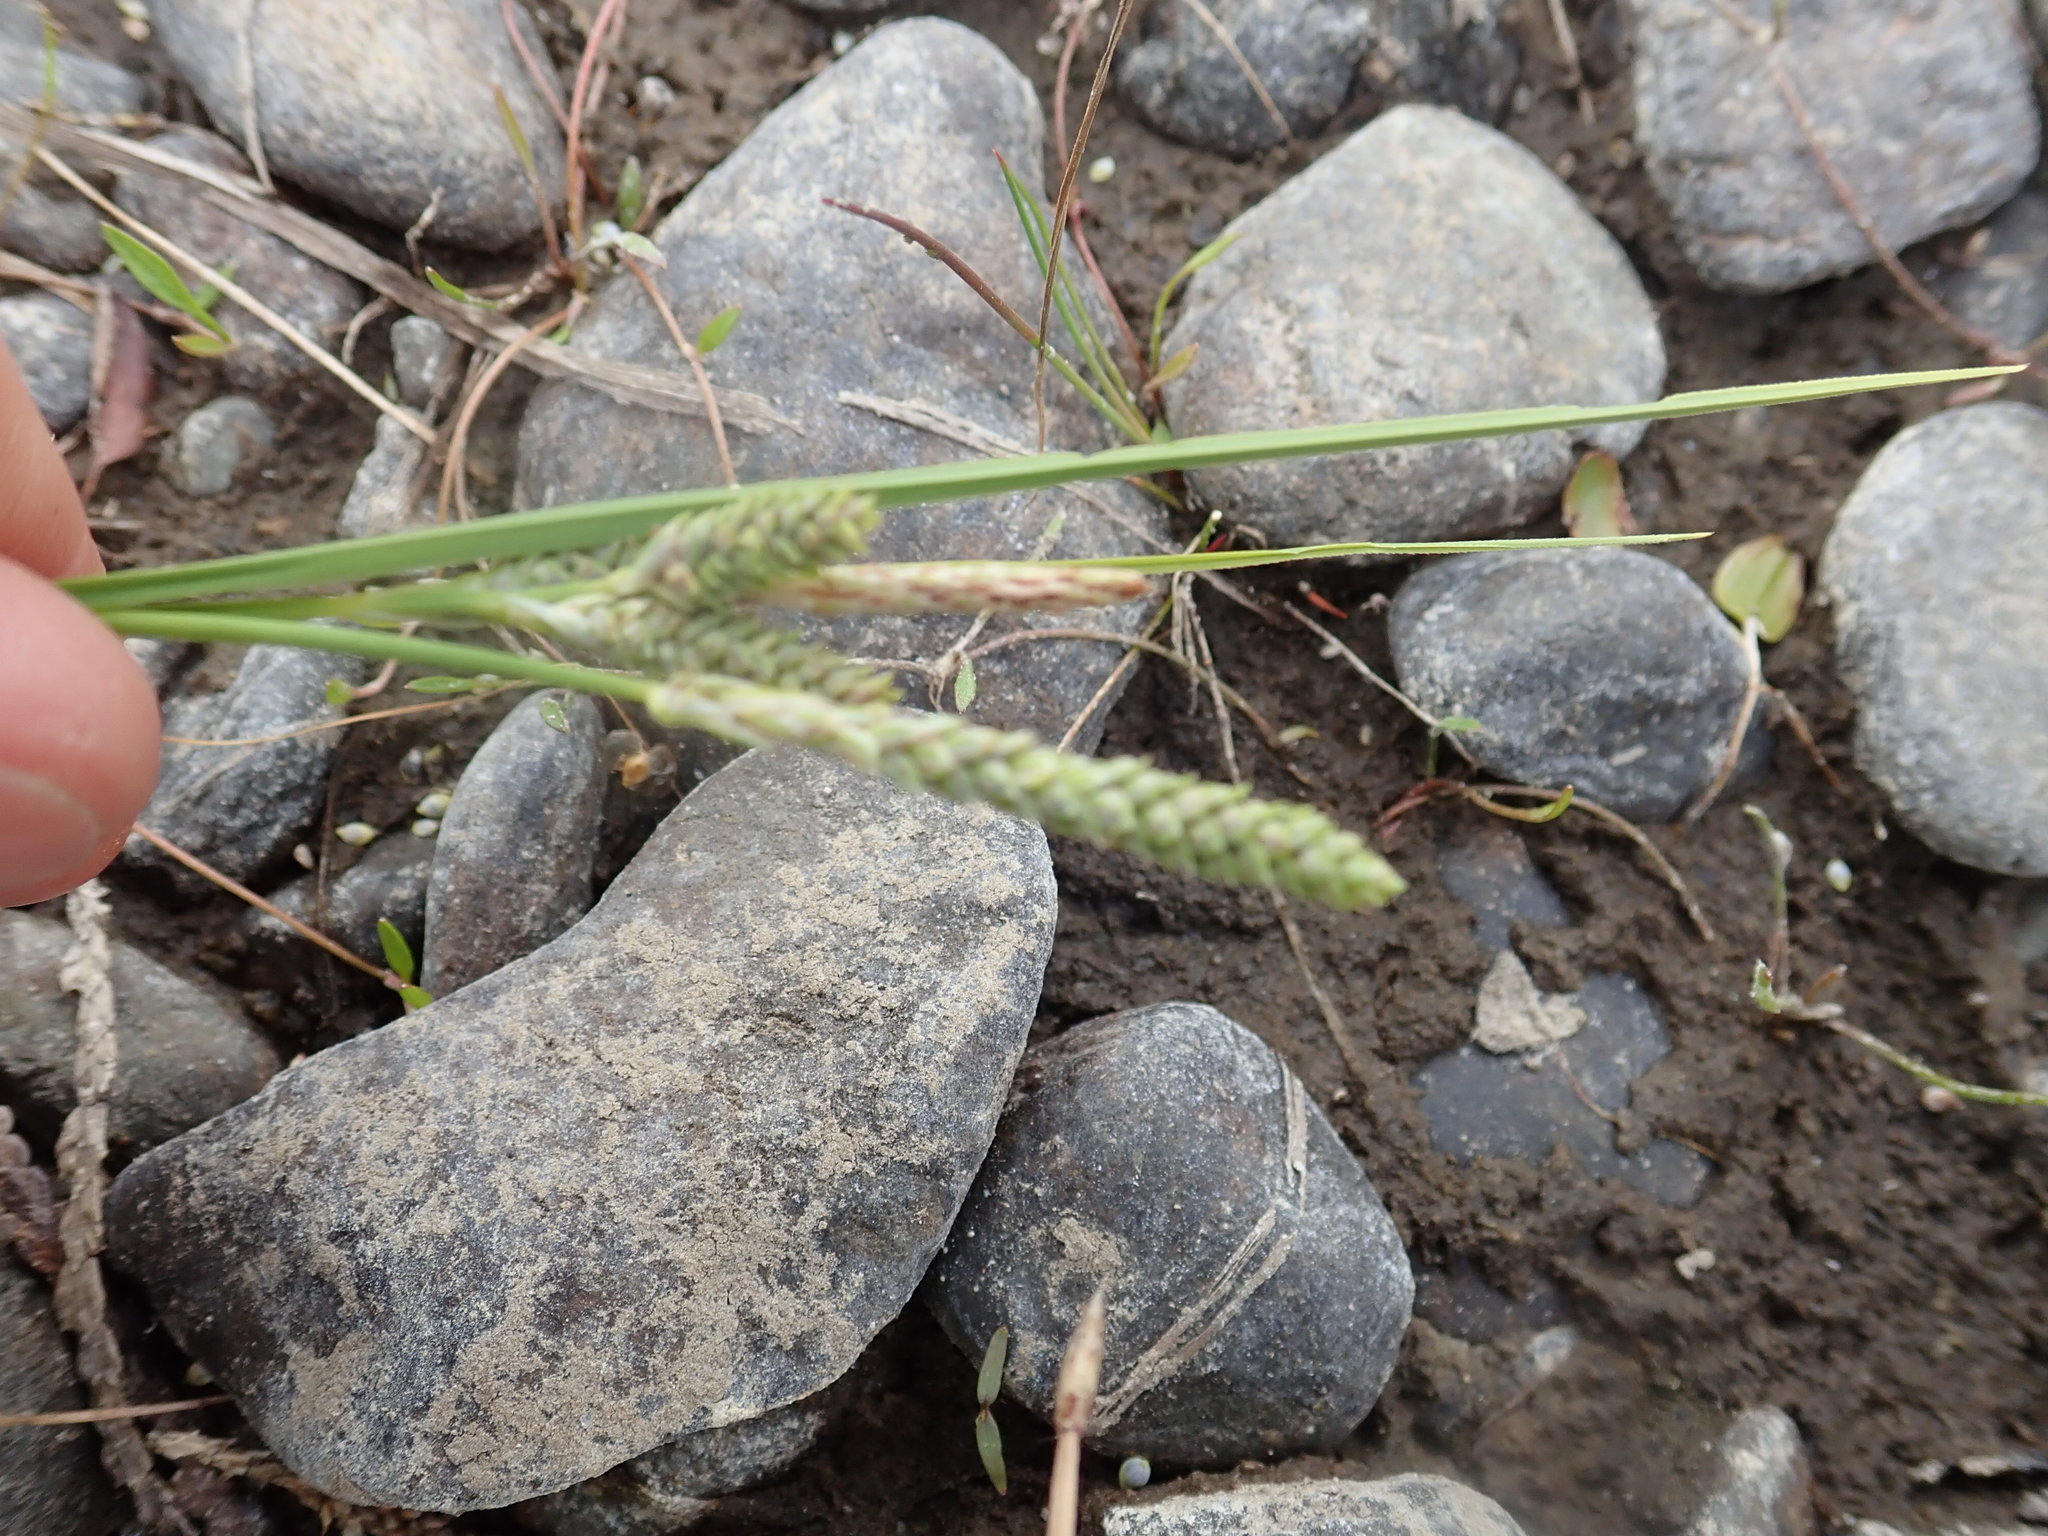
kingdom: Plantae
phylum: Tracheophyta
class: Liliopsida
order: Poales
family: Cyperaceae
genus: Carex
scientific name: Carex lenticularis
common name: Lakeshore sedge
